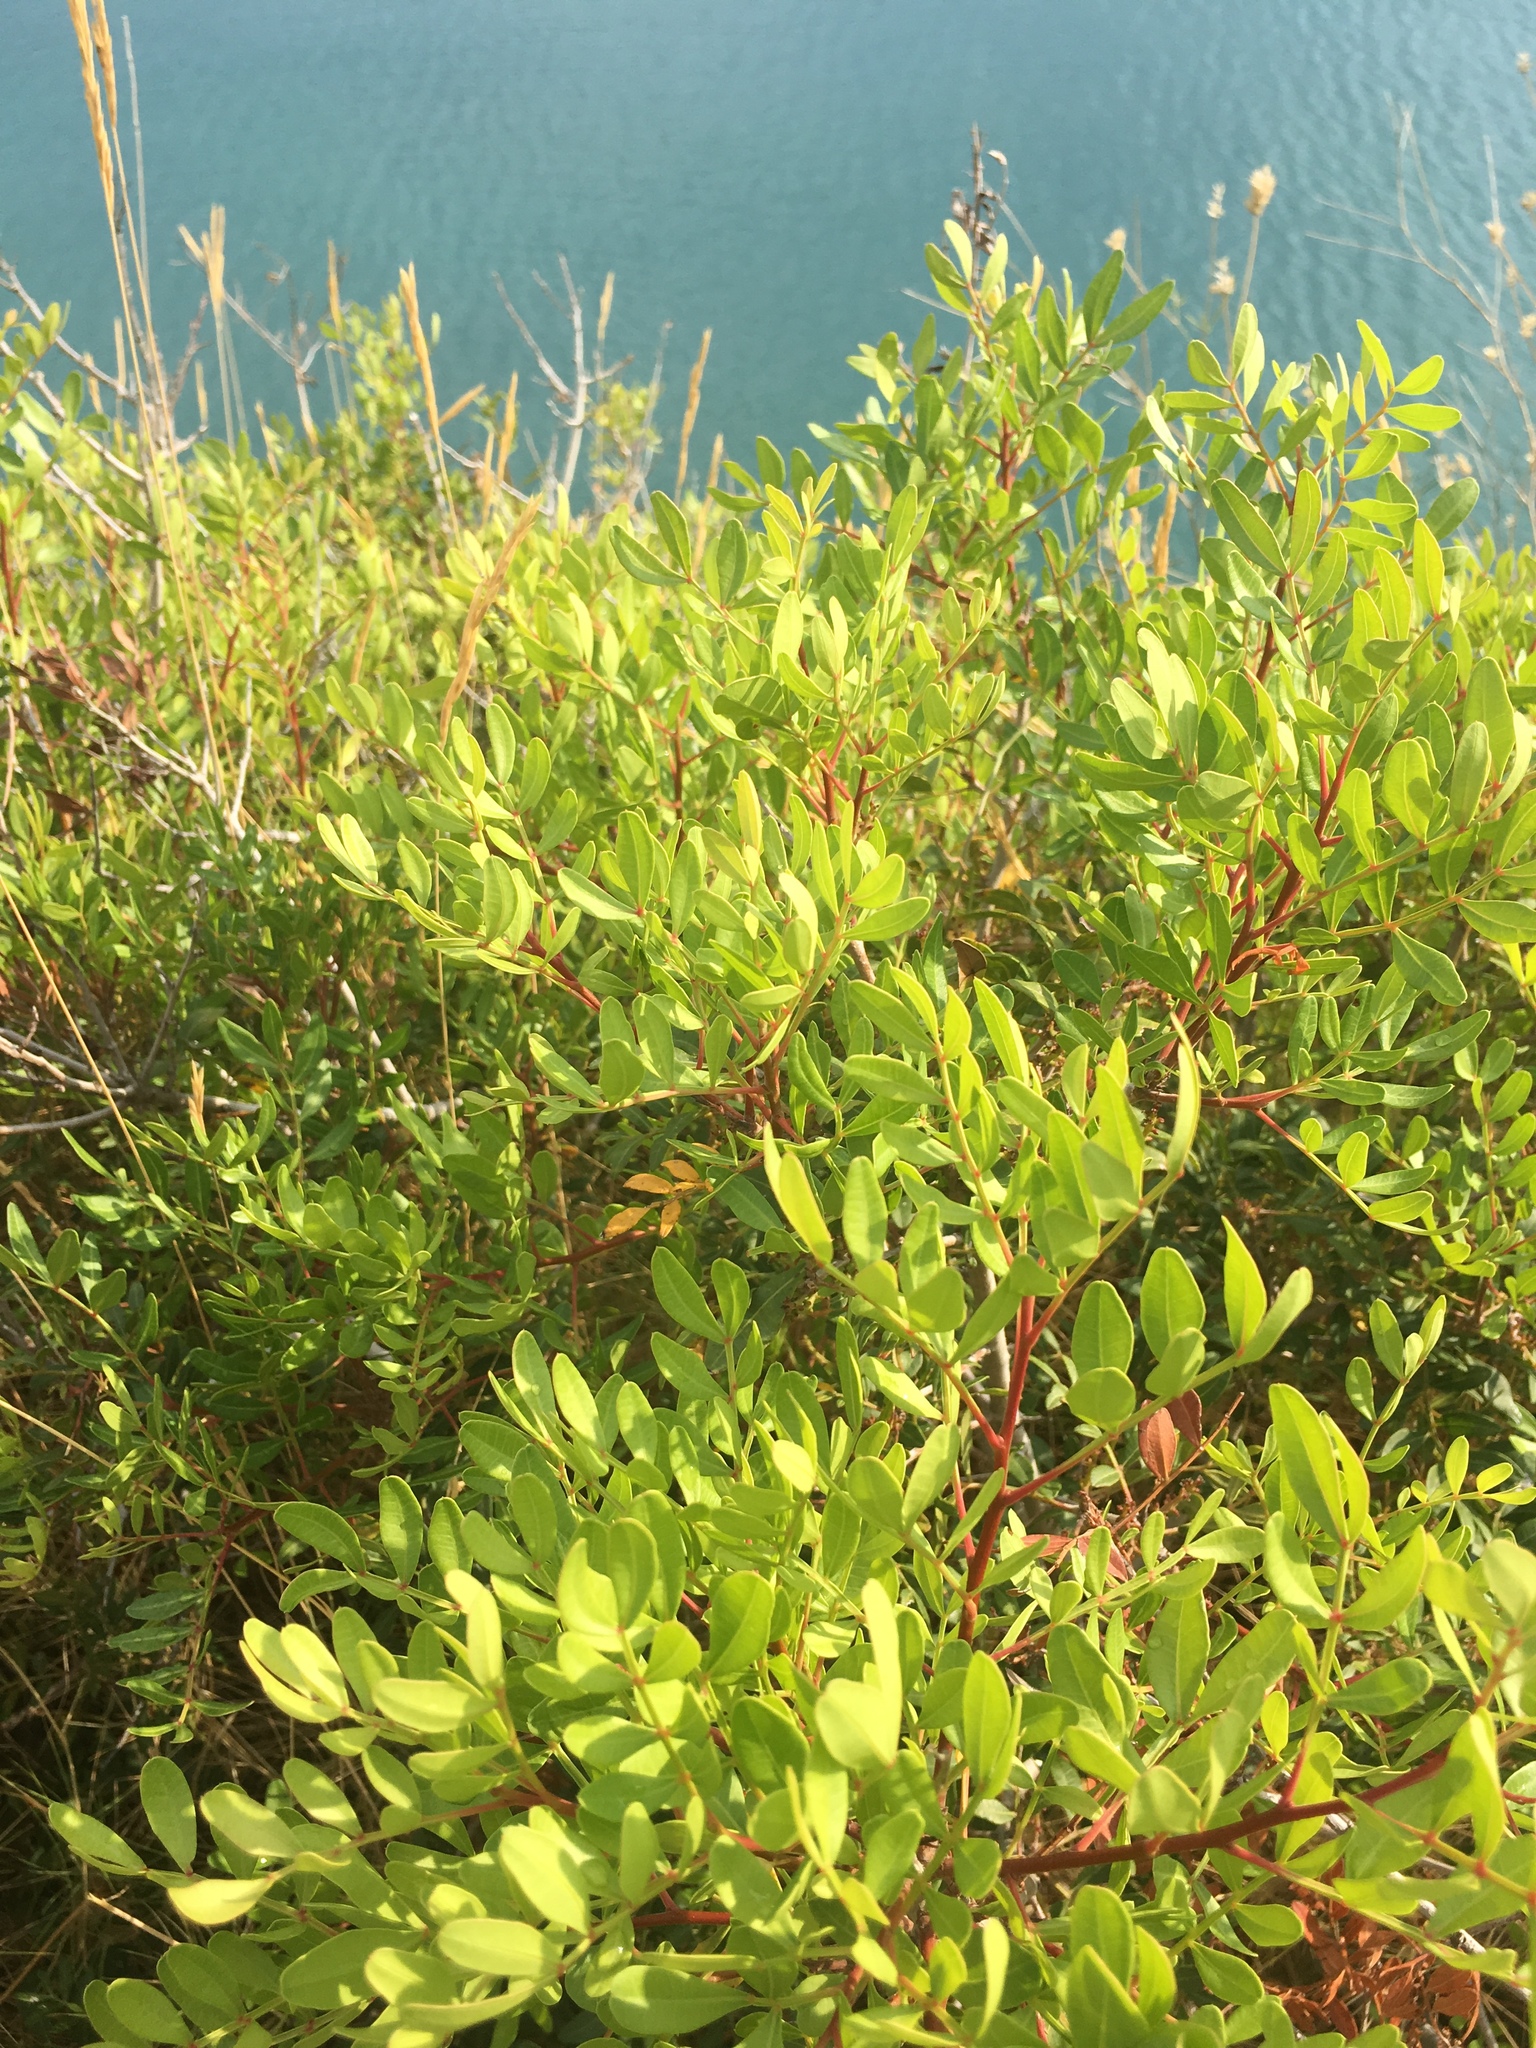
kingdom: Plantae
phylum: Tracheophyta
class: Magnoliopsida
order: Sapindales
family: Anacardiaceae
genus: Pistacia
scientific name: Pistacia lentiscus
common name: Lentisk
